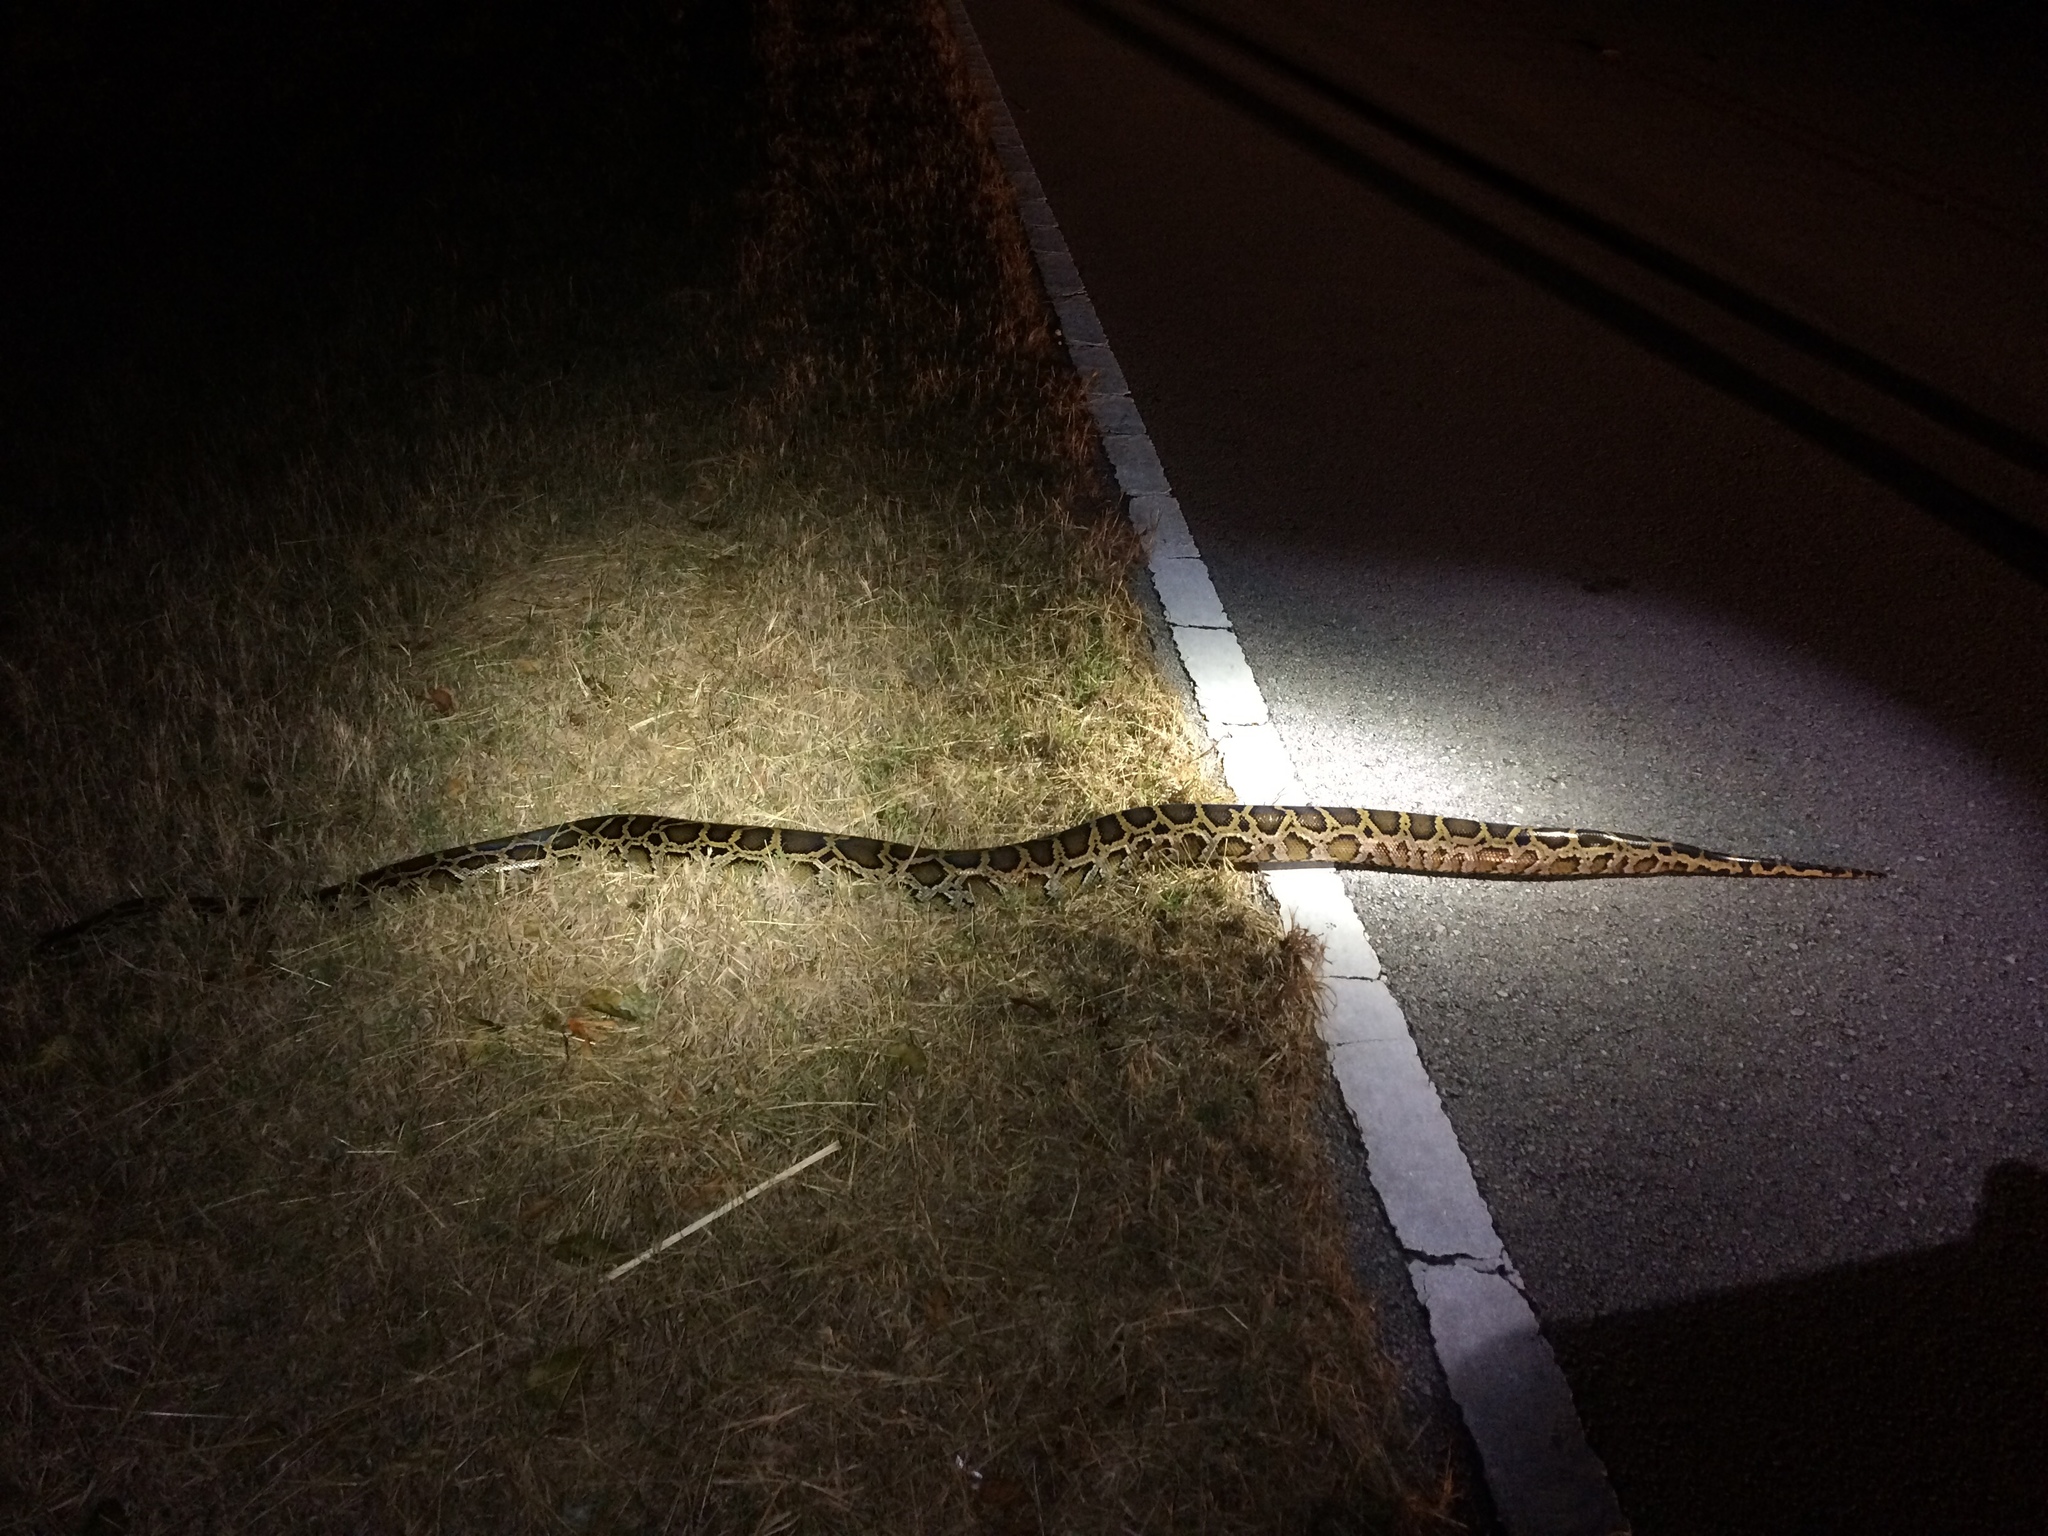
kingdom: Animalia
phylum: Chordata
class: Squamata
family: Pythonidae
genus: Python
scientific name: Python bivittatus
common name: Burmese python
